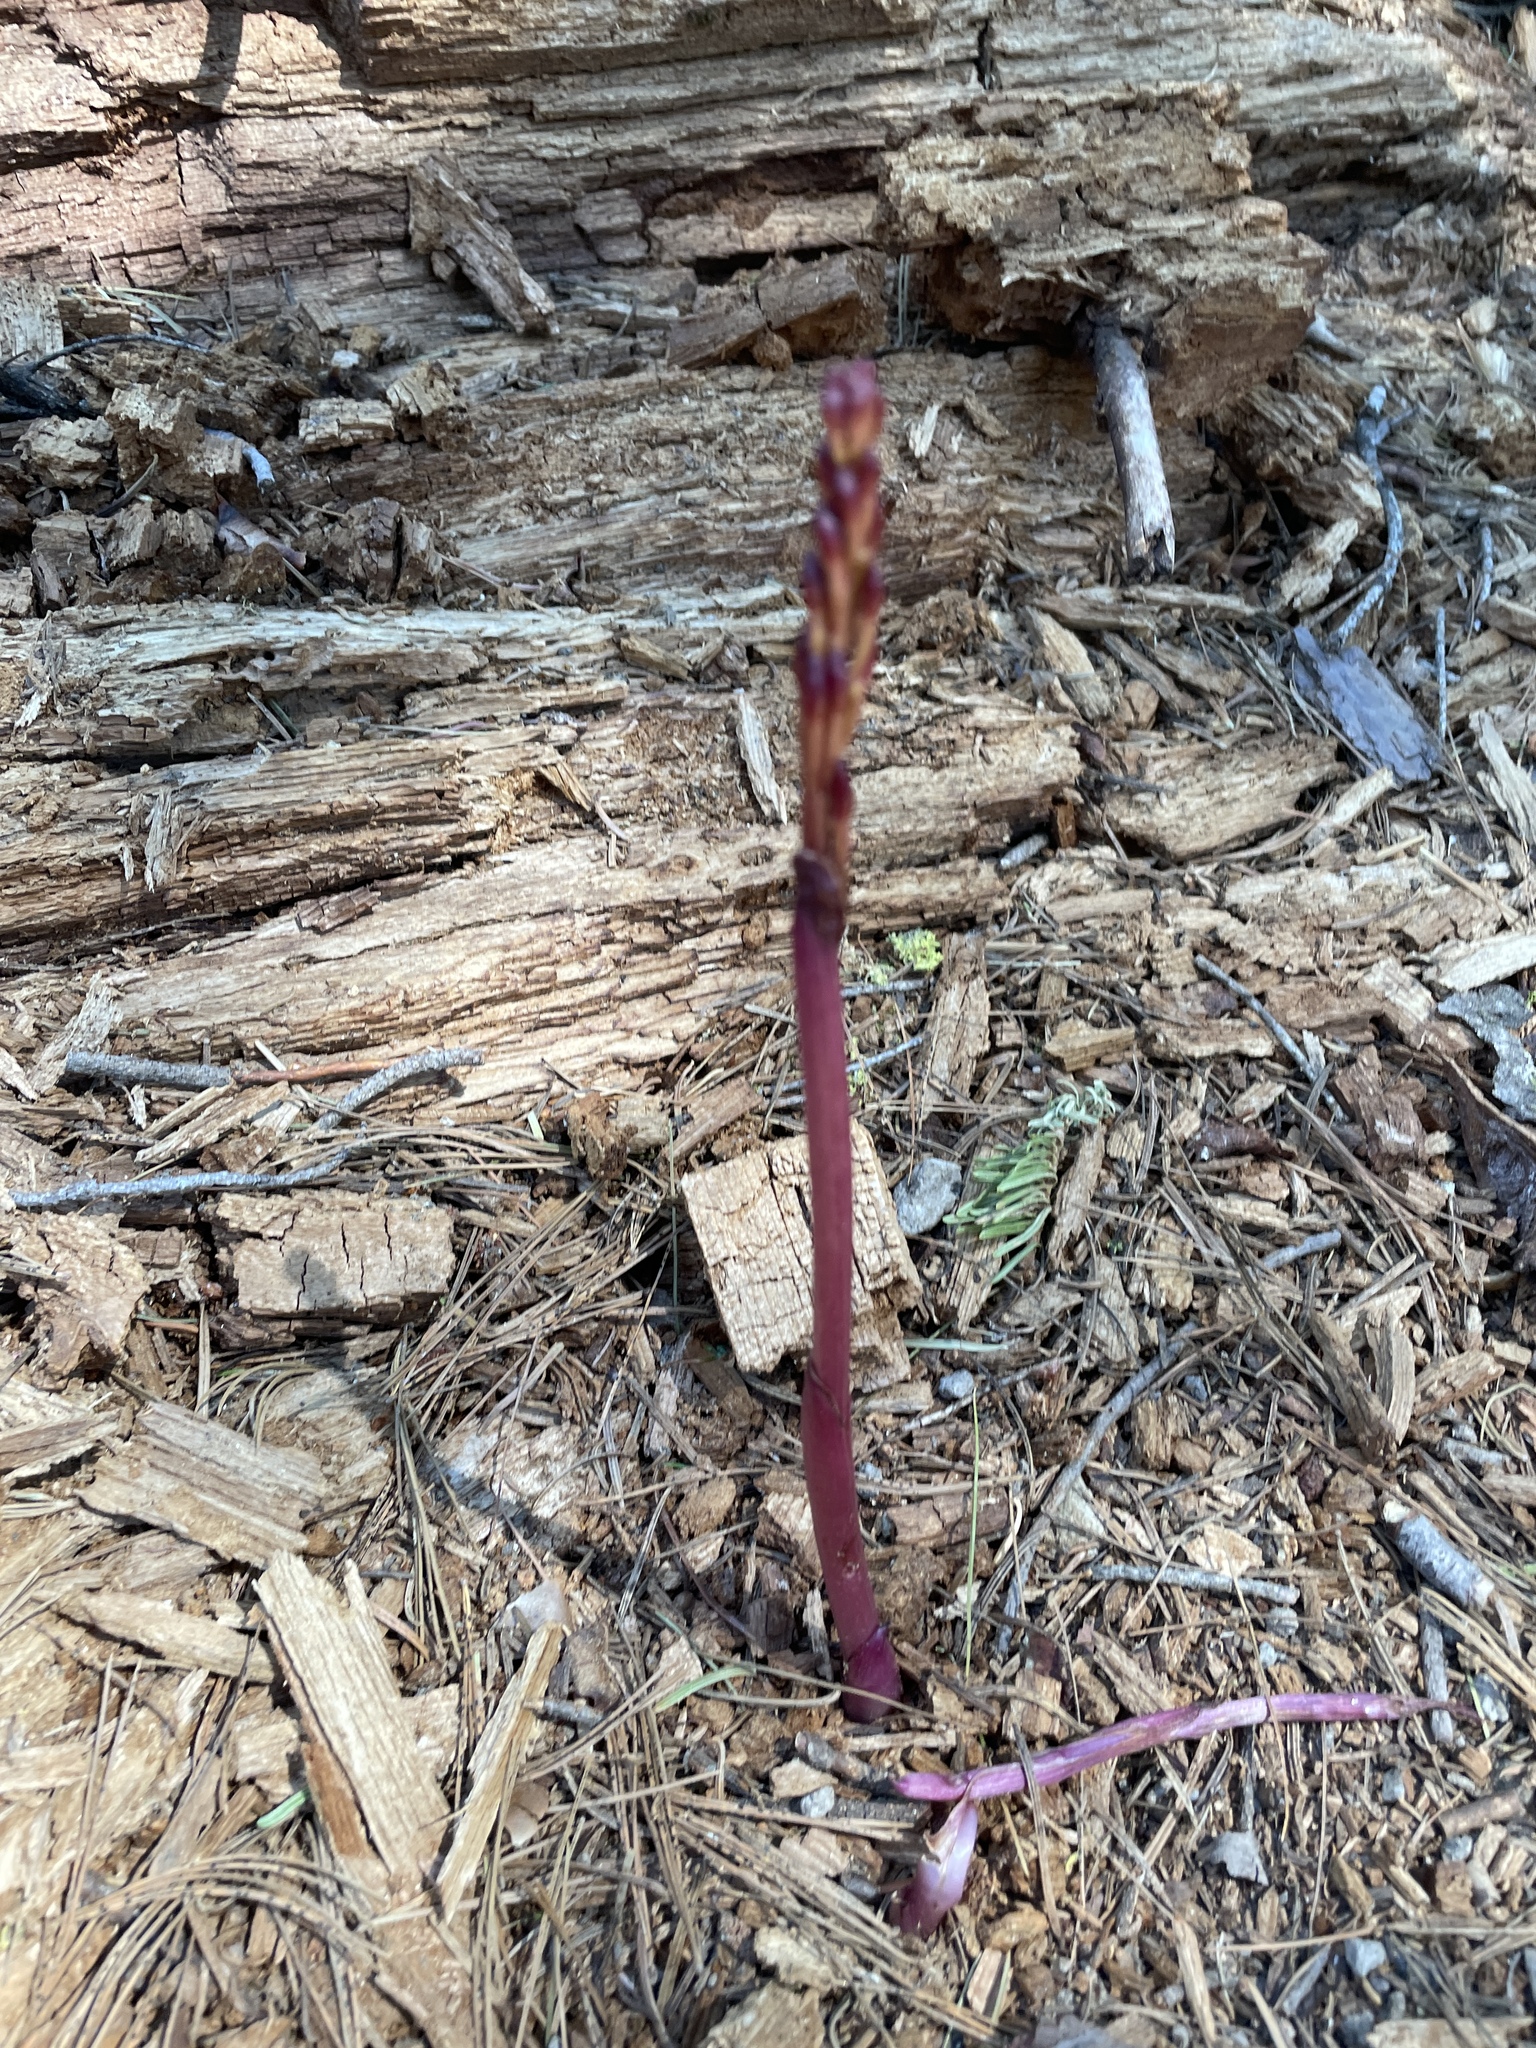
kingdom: Plantae
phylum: Tracheophyta
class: Liliopsida
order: Asparagales
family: Orchidaceae
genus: Corallorhiza
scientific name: Corallorhiza maculata
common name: Spotted coralroot
